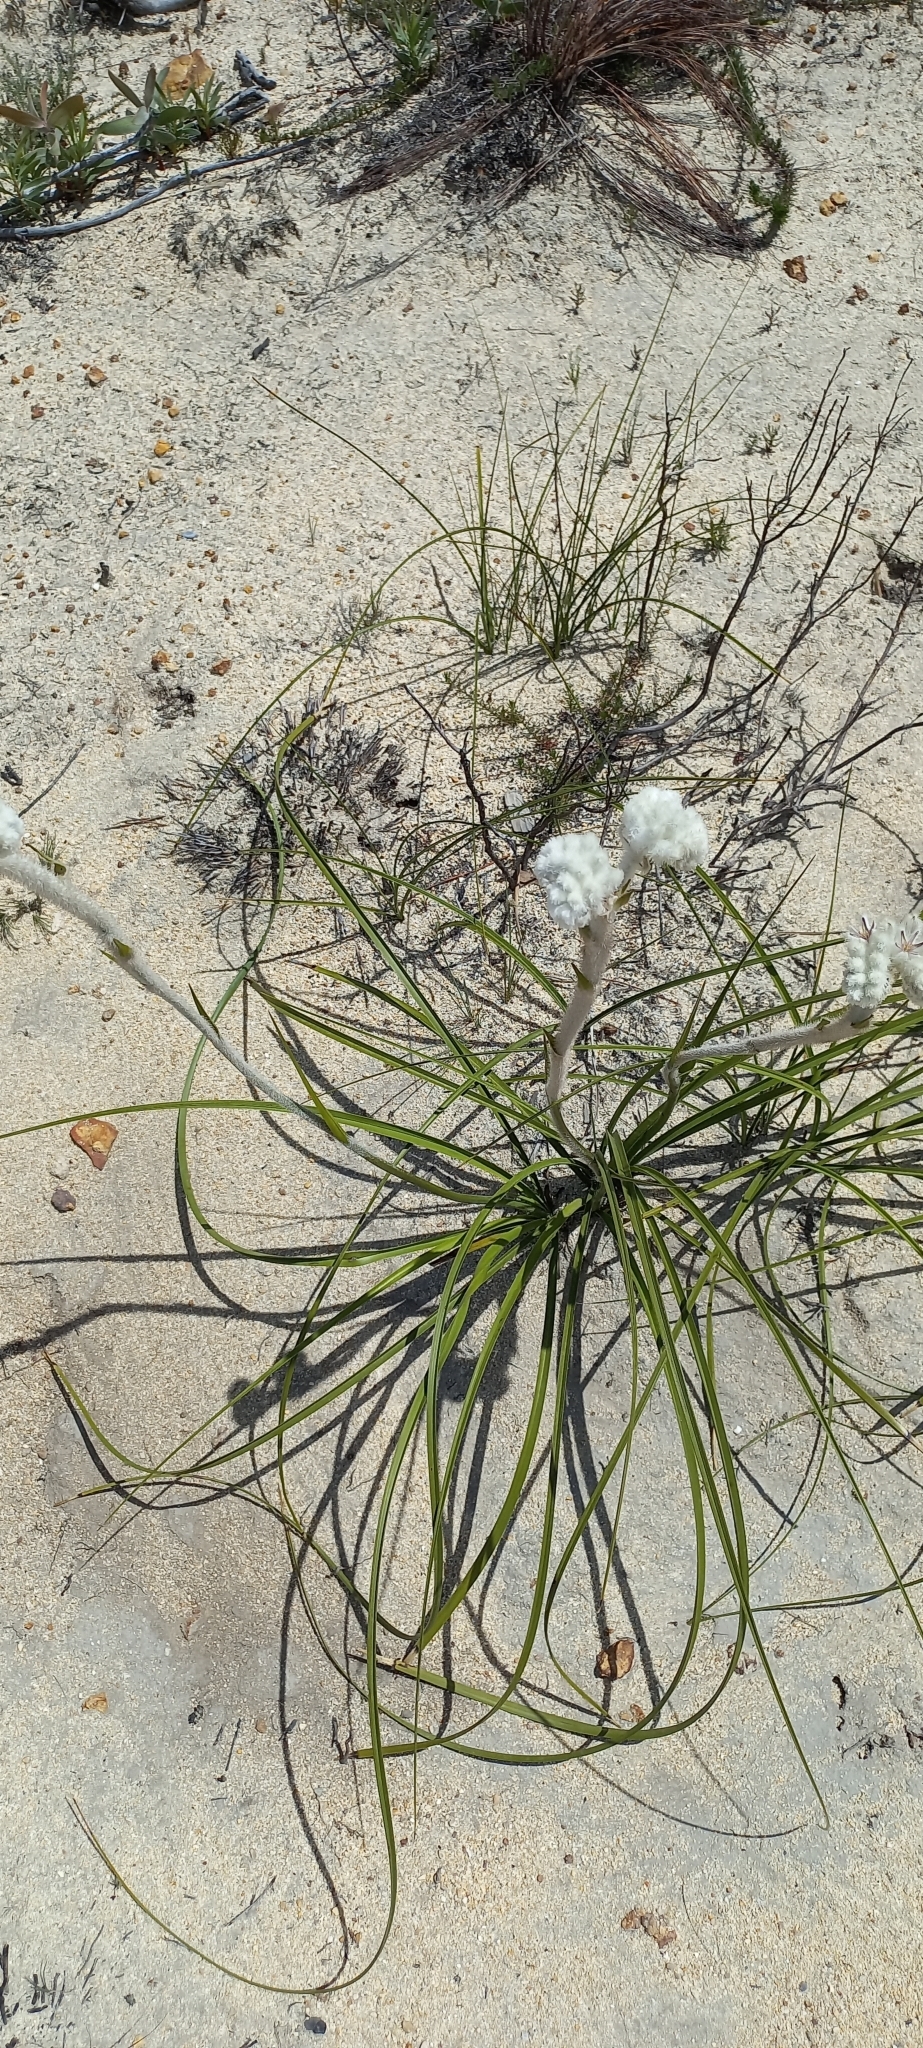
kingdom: Plantae
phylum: Tracheophyta
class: Liliopsida
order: Asparagales
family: Lanariaceae
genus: Lanaria
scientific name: Lanaria lanata
